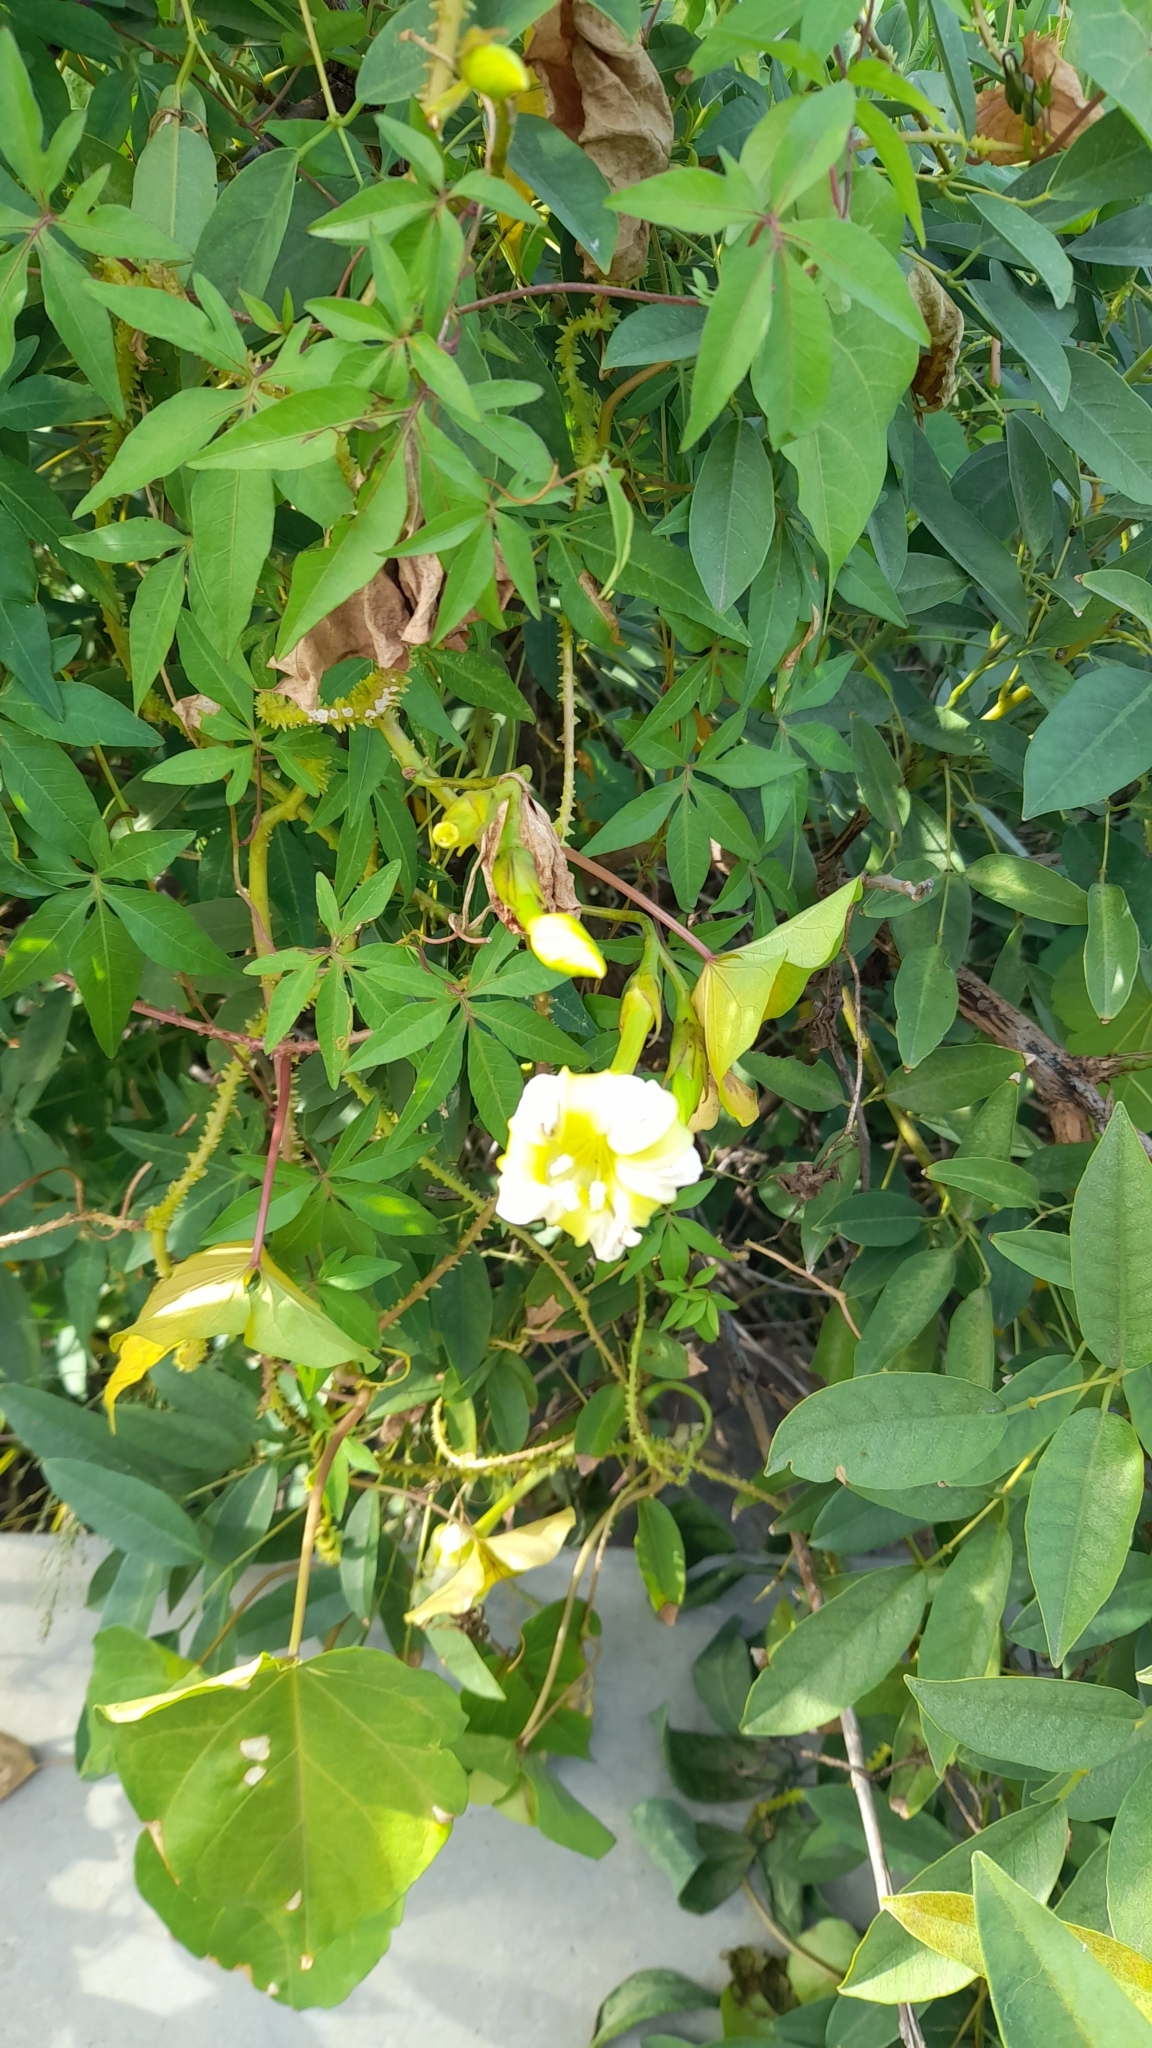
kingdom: Plantae
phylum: Tracheophyta
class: Magnoliopsida
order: Solanales
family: Convolvulaceae
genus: Ipomoea
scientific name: Ipomoea alba
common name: Moonflower
